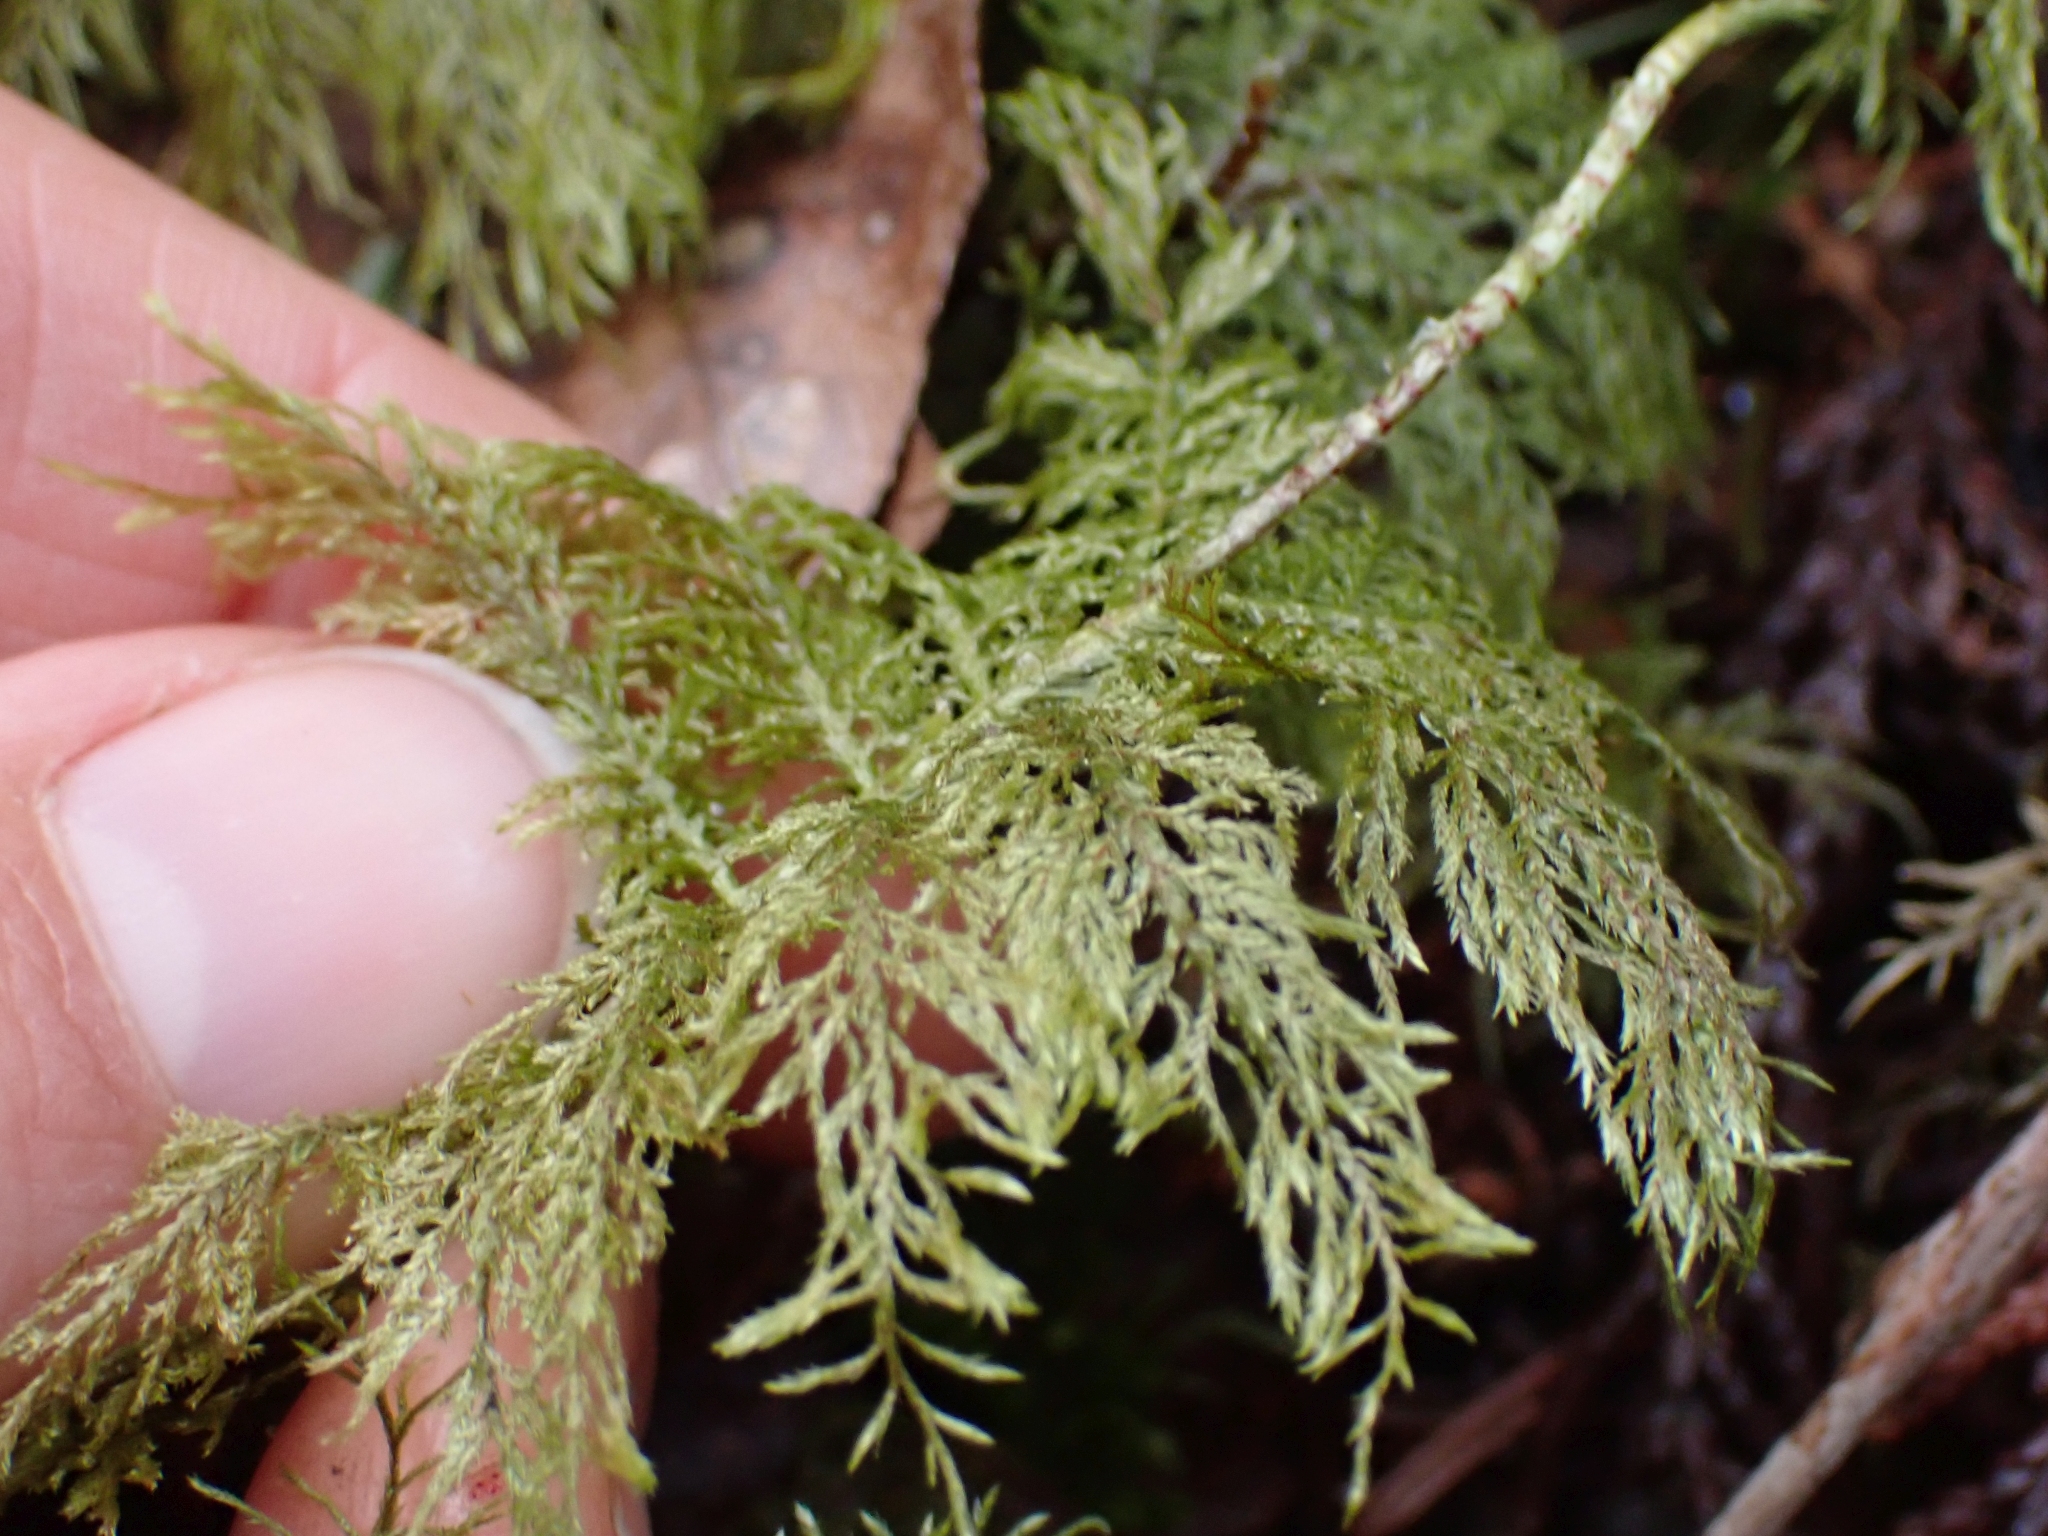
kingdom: Plantae
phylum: Bryophyta
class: Bryopsida
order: Hypnales
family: Hylocomiaceae
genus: Hylocomium
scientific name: Hylocomium splendens
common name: Stairstep moss
